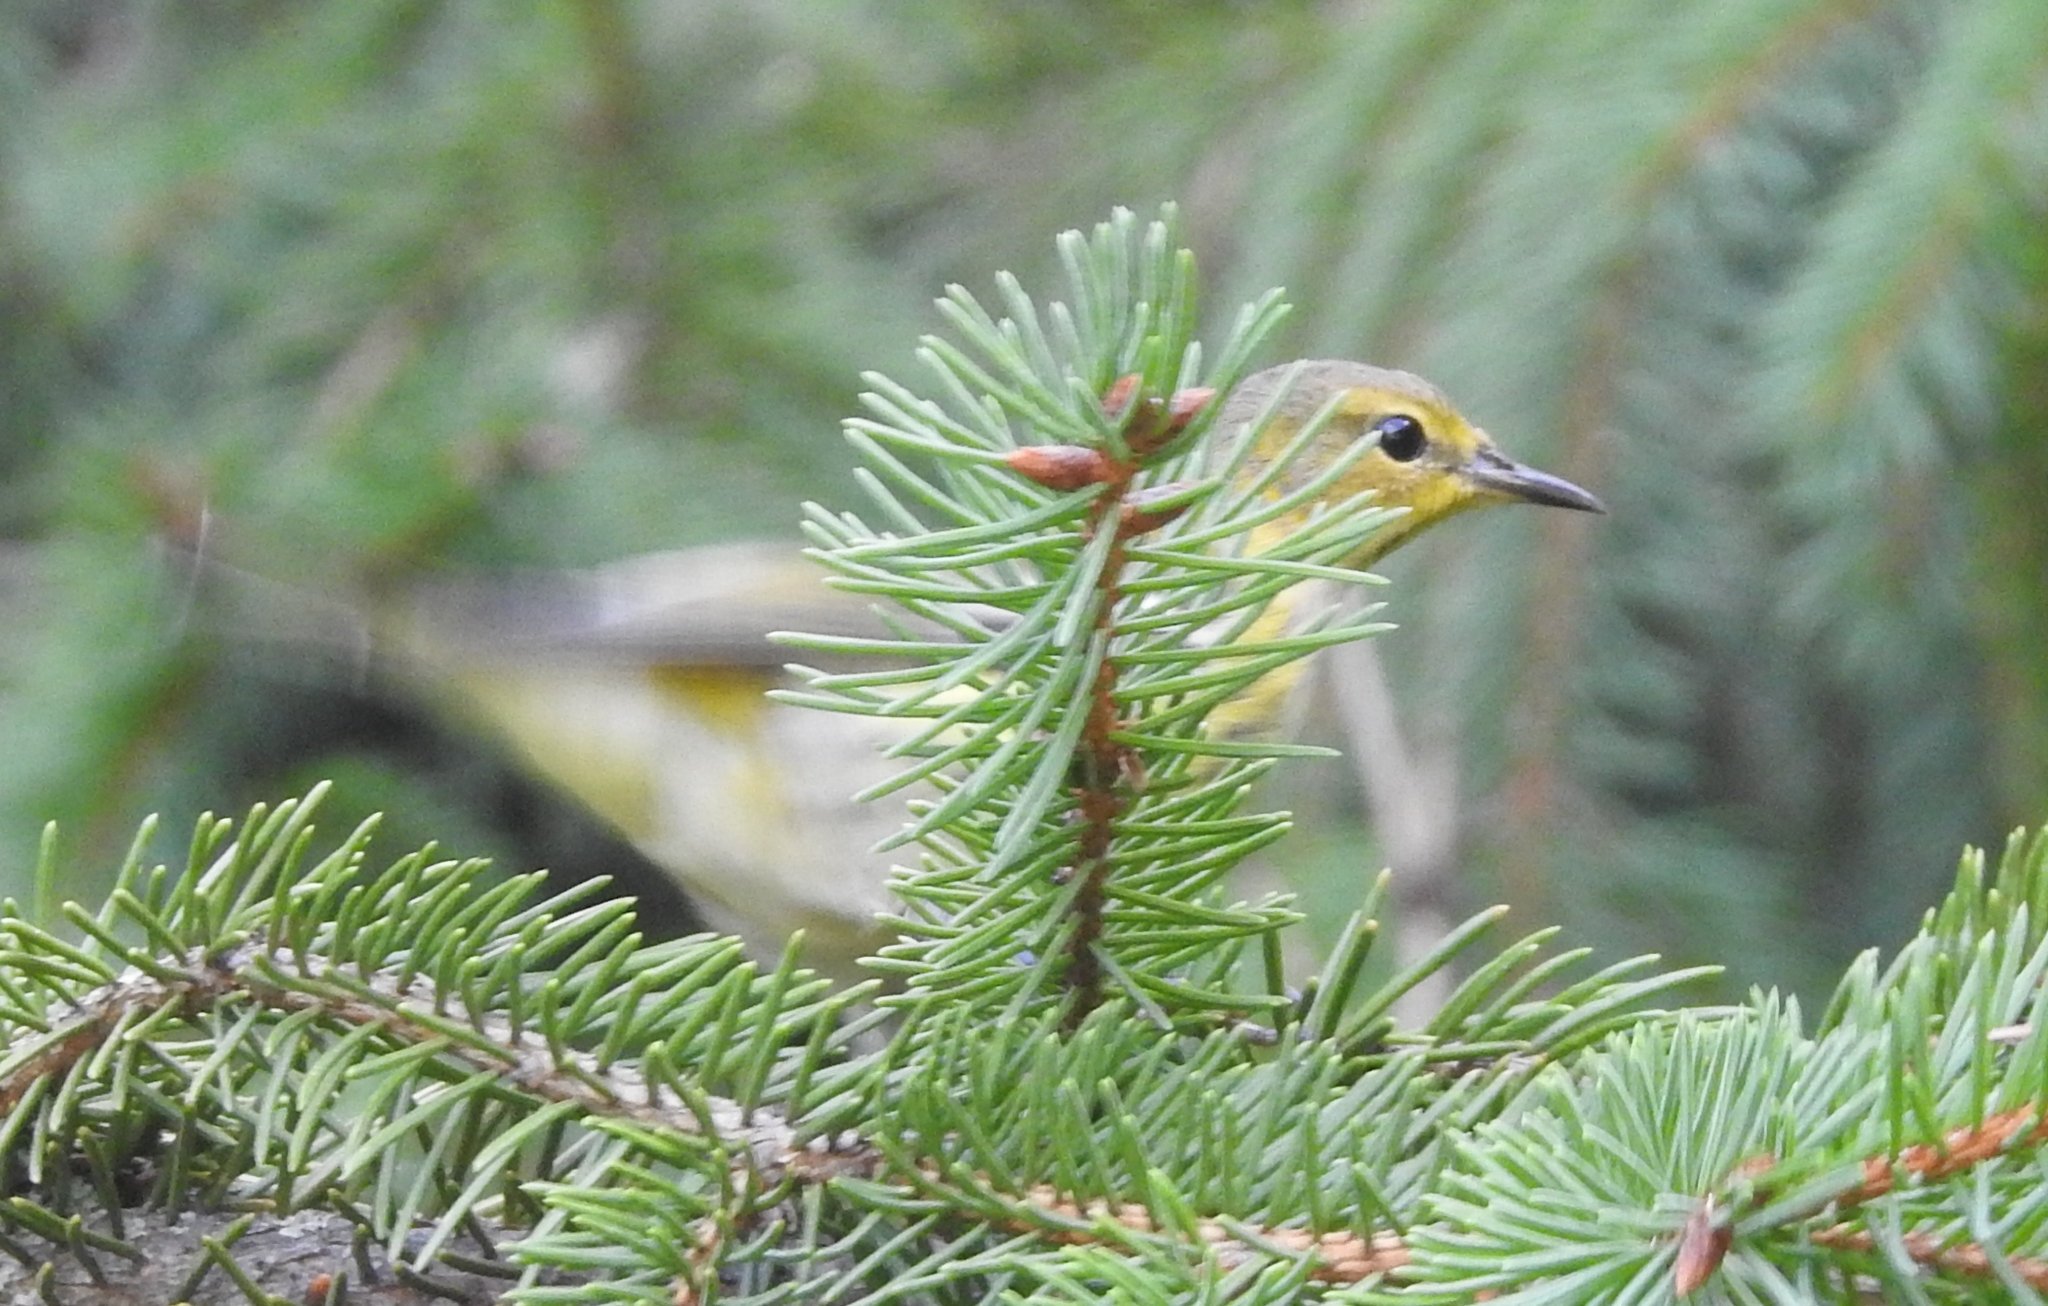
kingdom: Animalia
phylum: Chordata
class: Aves
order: Passeriformes
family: Parulidae
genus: Setophaga
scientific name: Setophaga tigrina
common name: Cape may warbler
